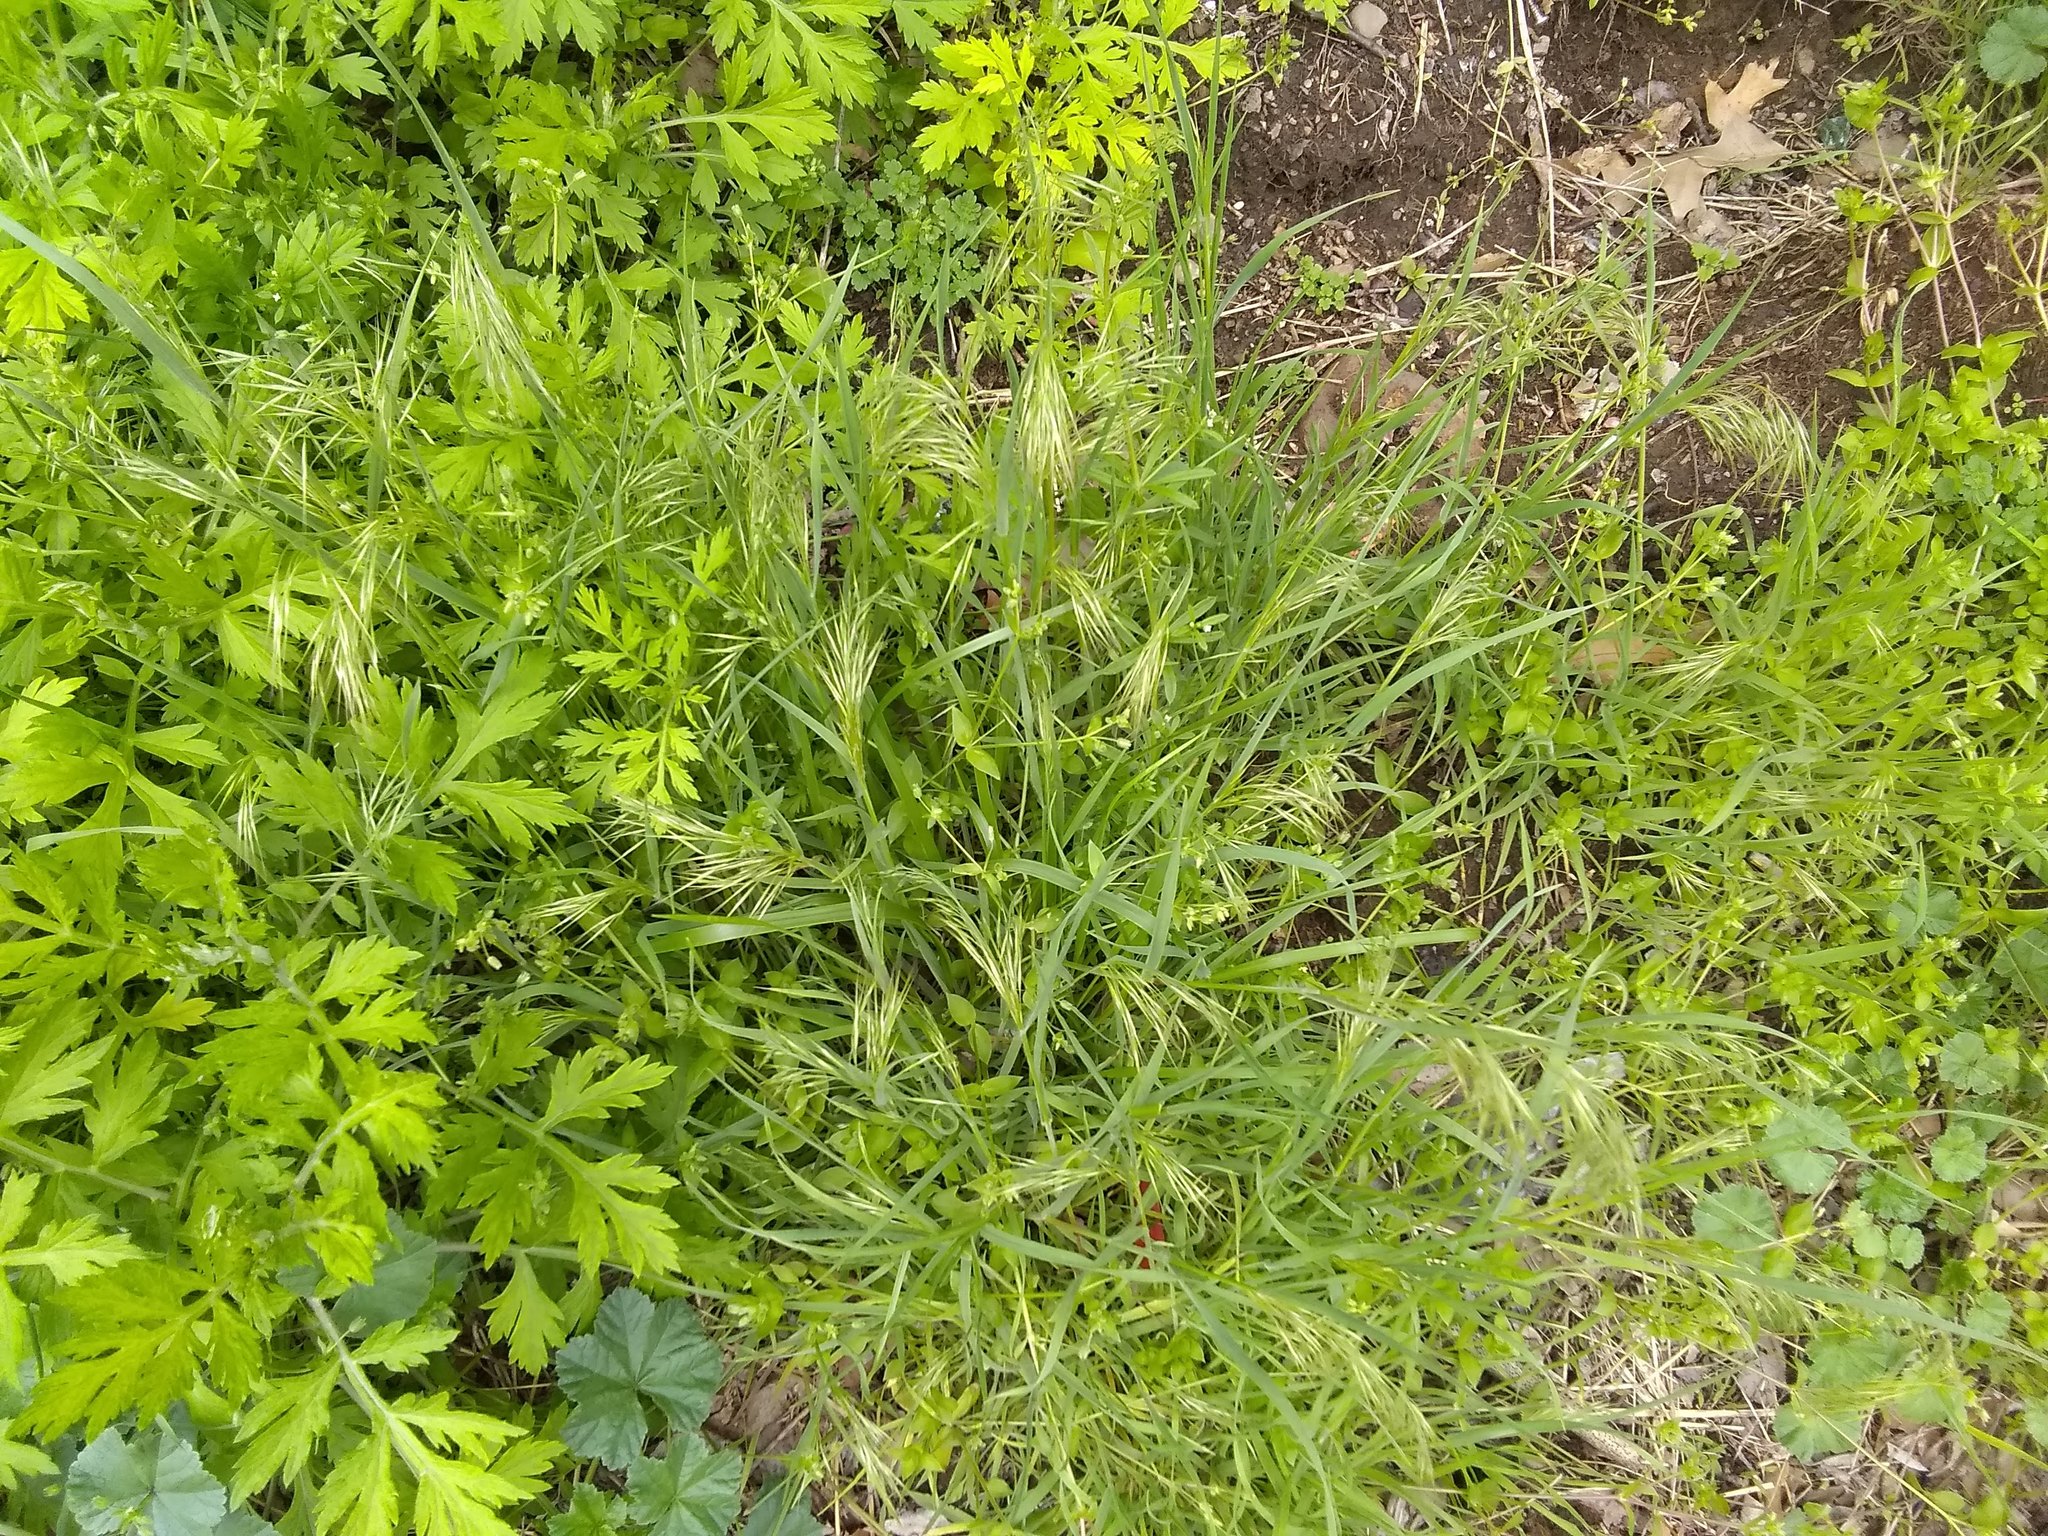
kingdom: Plantae
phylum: Tracheophyta
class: Liliopsida
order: Poales
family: Poaceae
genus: Bromus
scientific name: Bromus tectorum
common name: Cheatgrass
